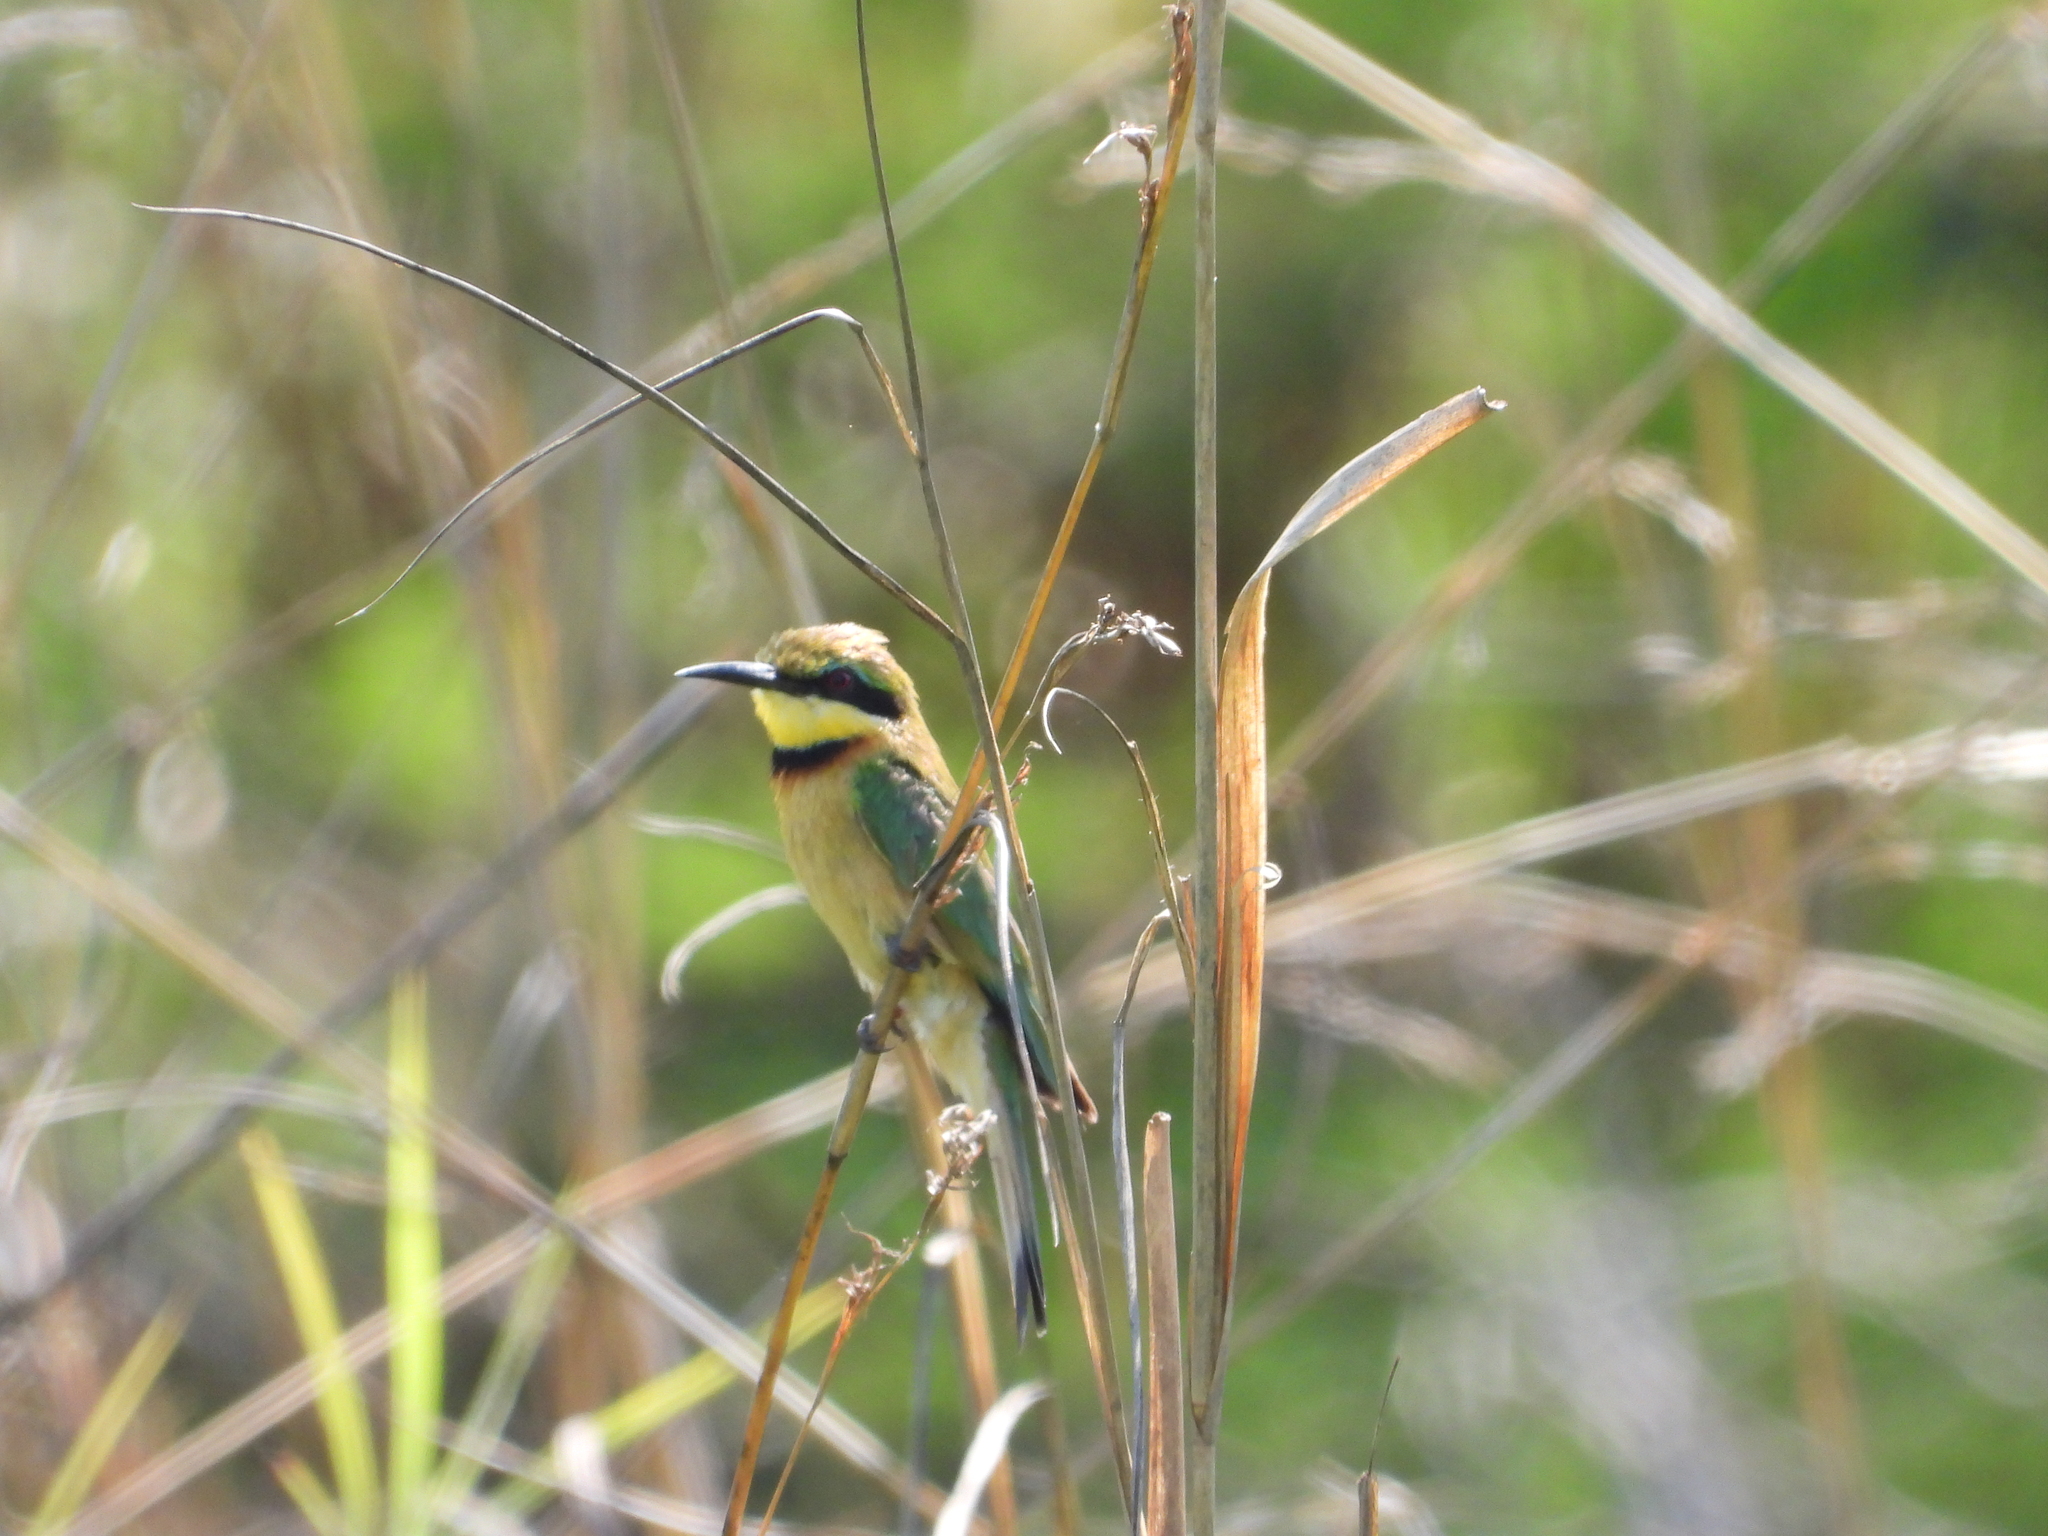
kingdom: Animalia
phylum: Chordata
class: Aves
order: Coraciiformes
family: Meropidae
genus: Merops
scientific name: Merops pusillus
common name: Little bee-eater
